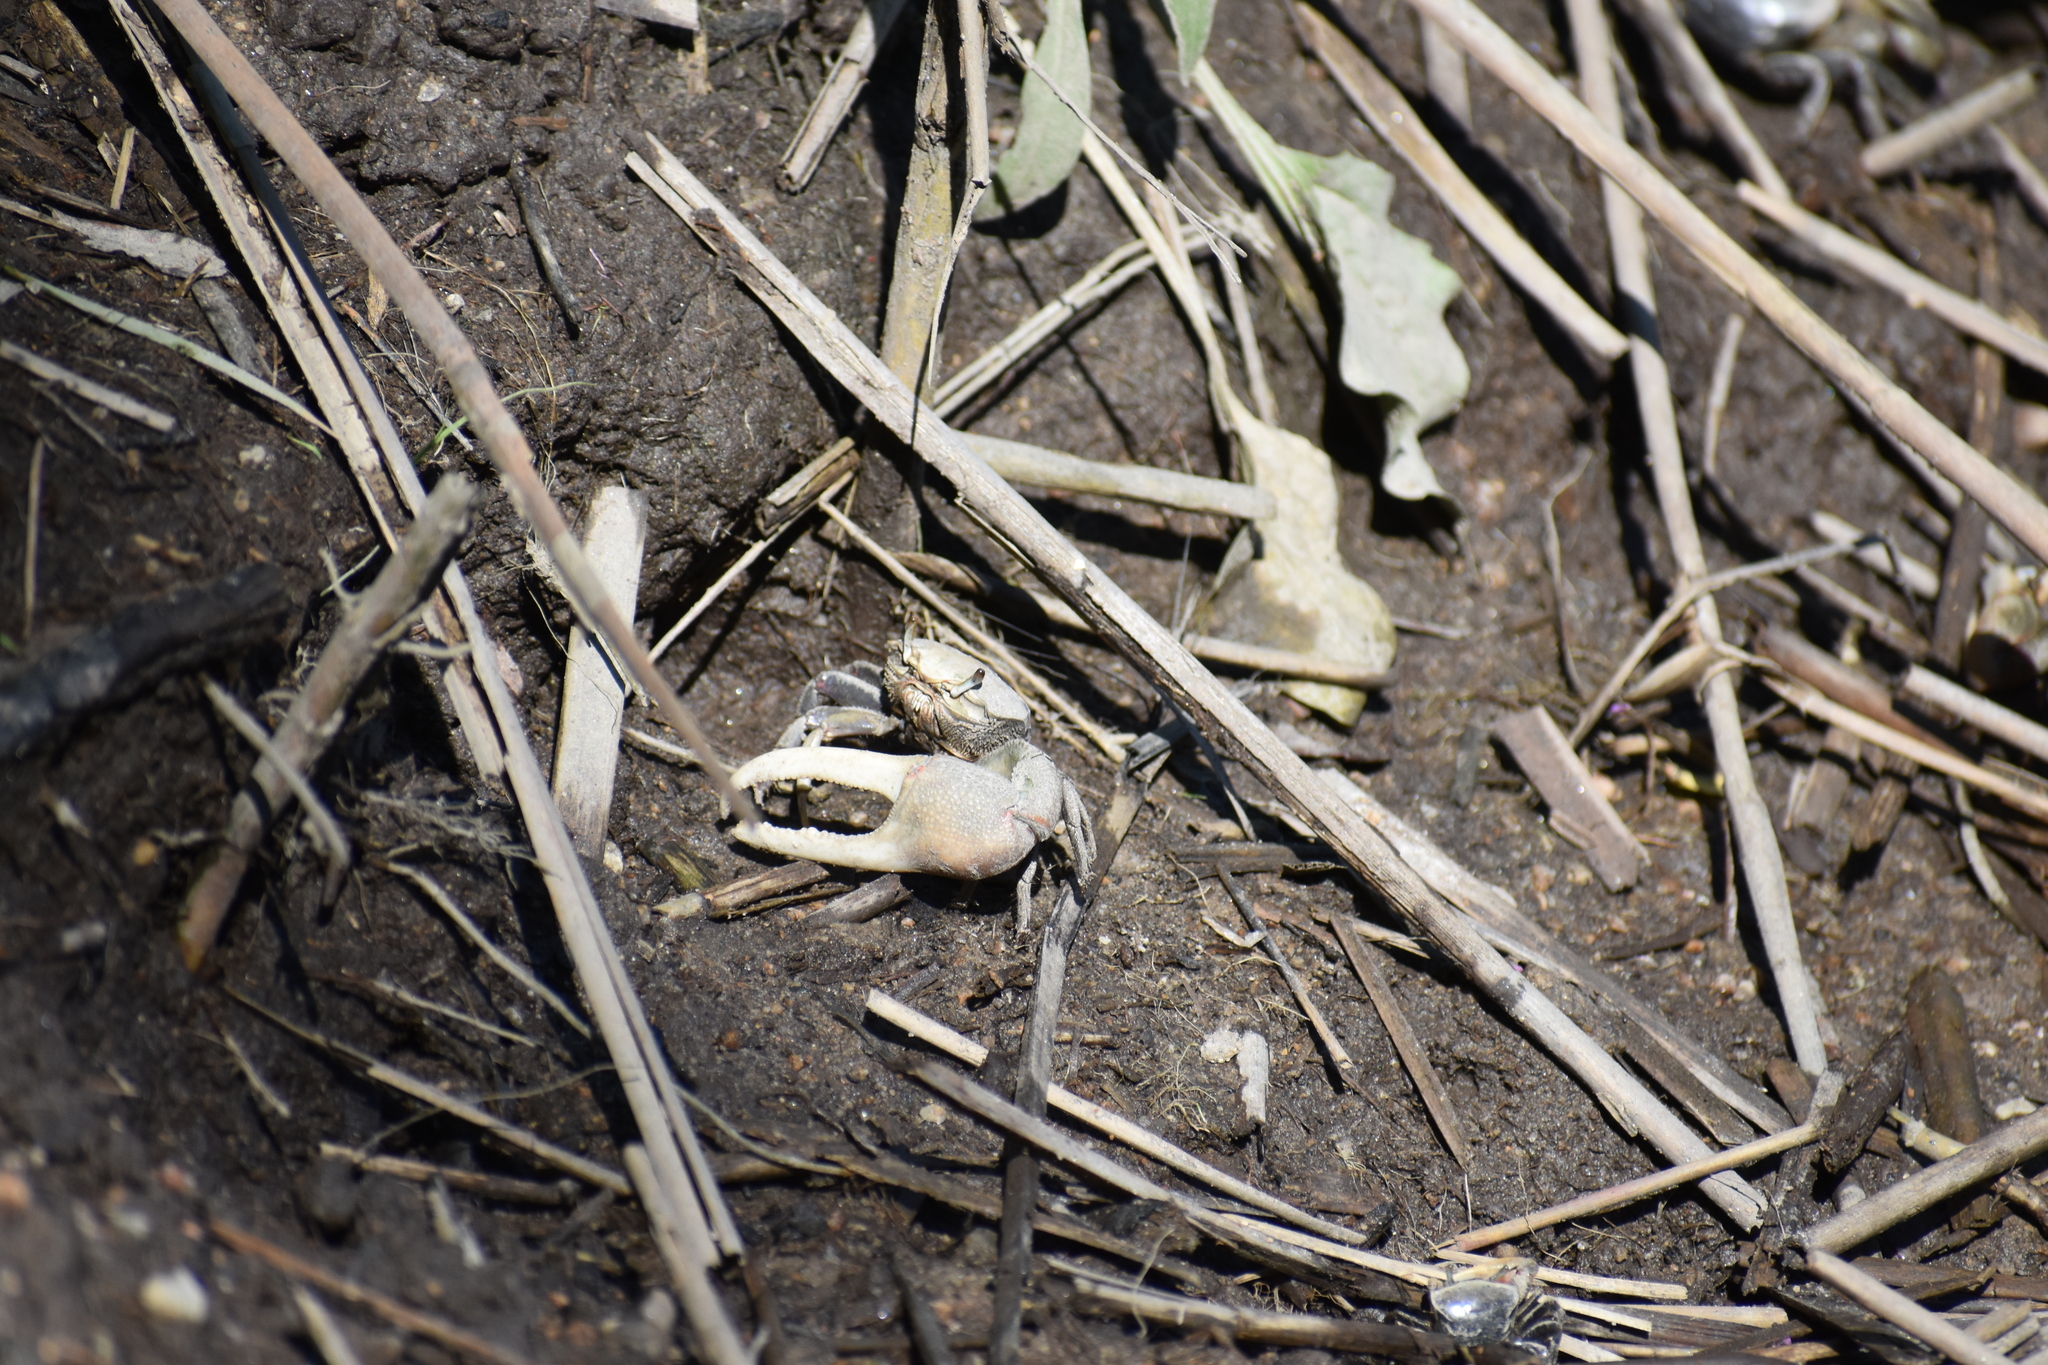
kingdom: Animalia
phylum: Arthropoda
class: Malacostraca
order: Decapoda
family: Ocypodidae
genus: Minuca
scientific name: Minuca minax
